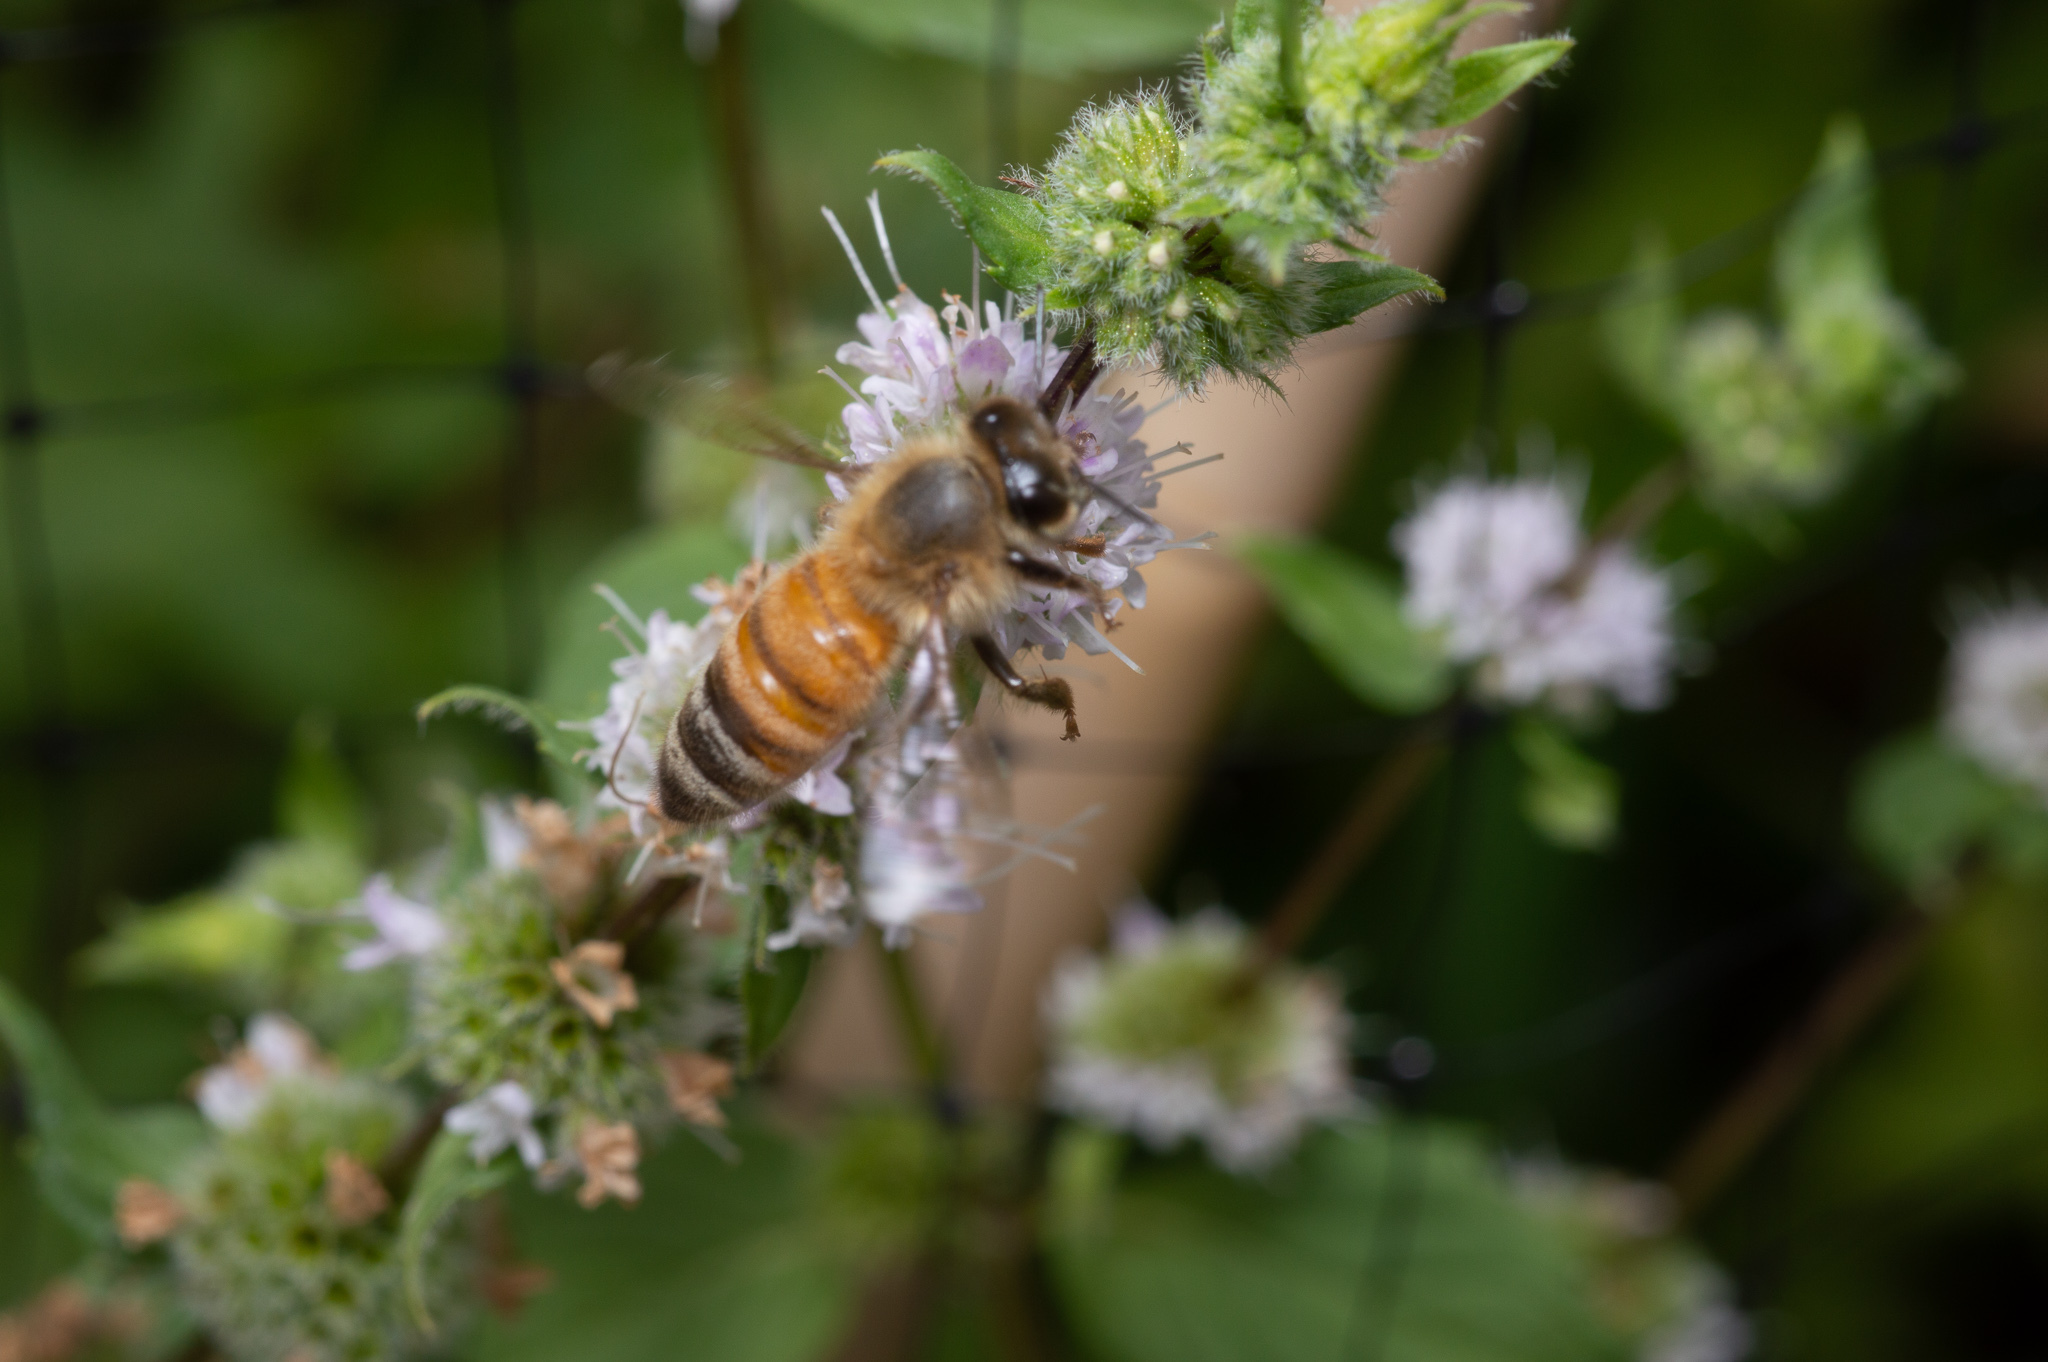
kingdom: Animalia
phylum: Arthropoda
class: Insecta
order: Hymenoptera
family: Apidae
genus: Apis
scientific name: Apis mellifera
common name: Honey bee
